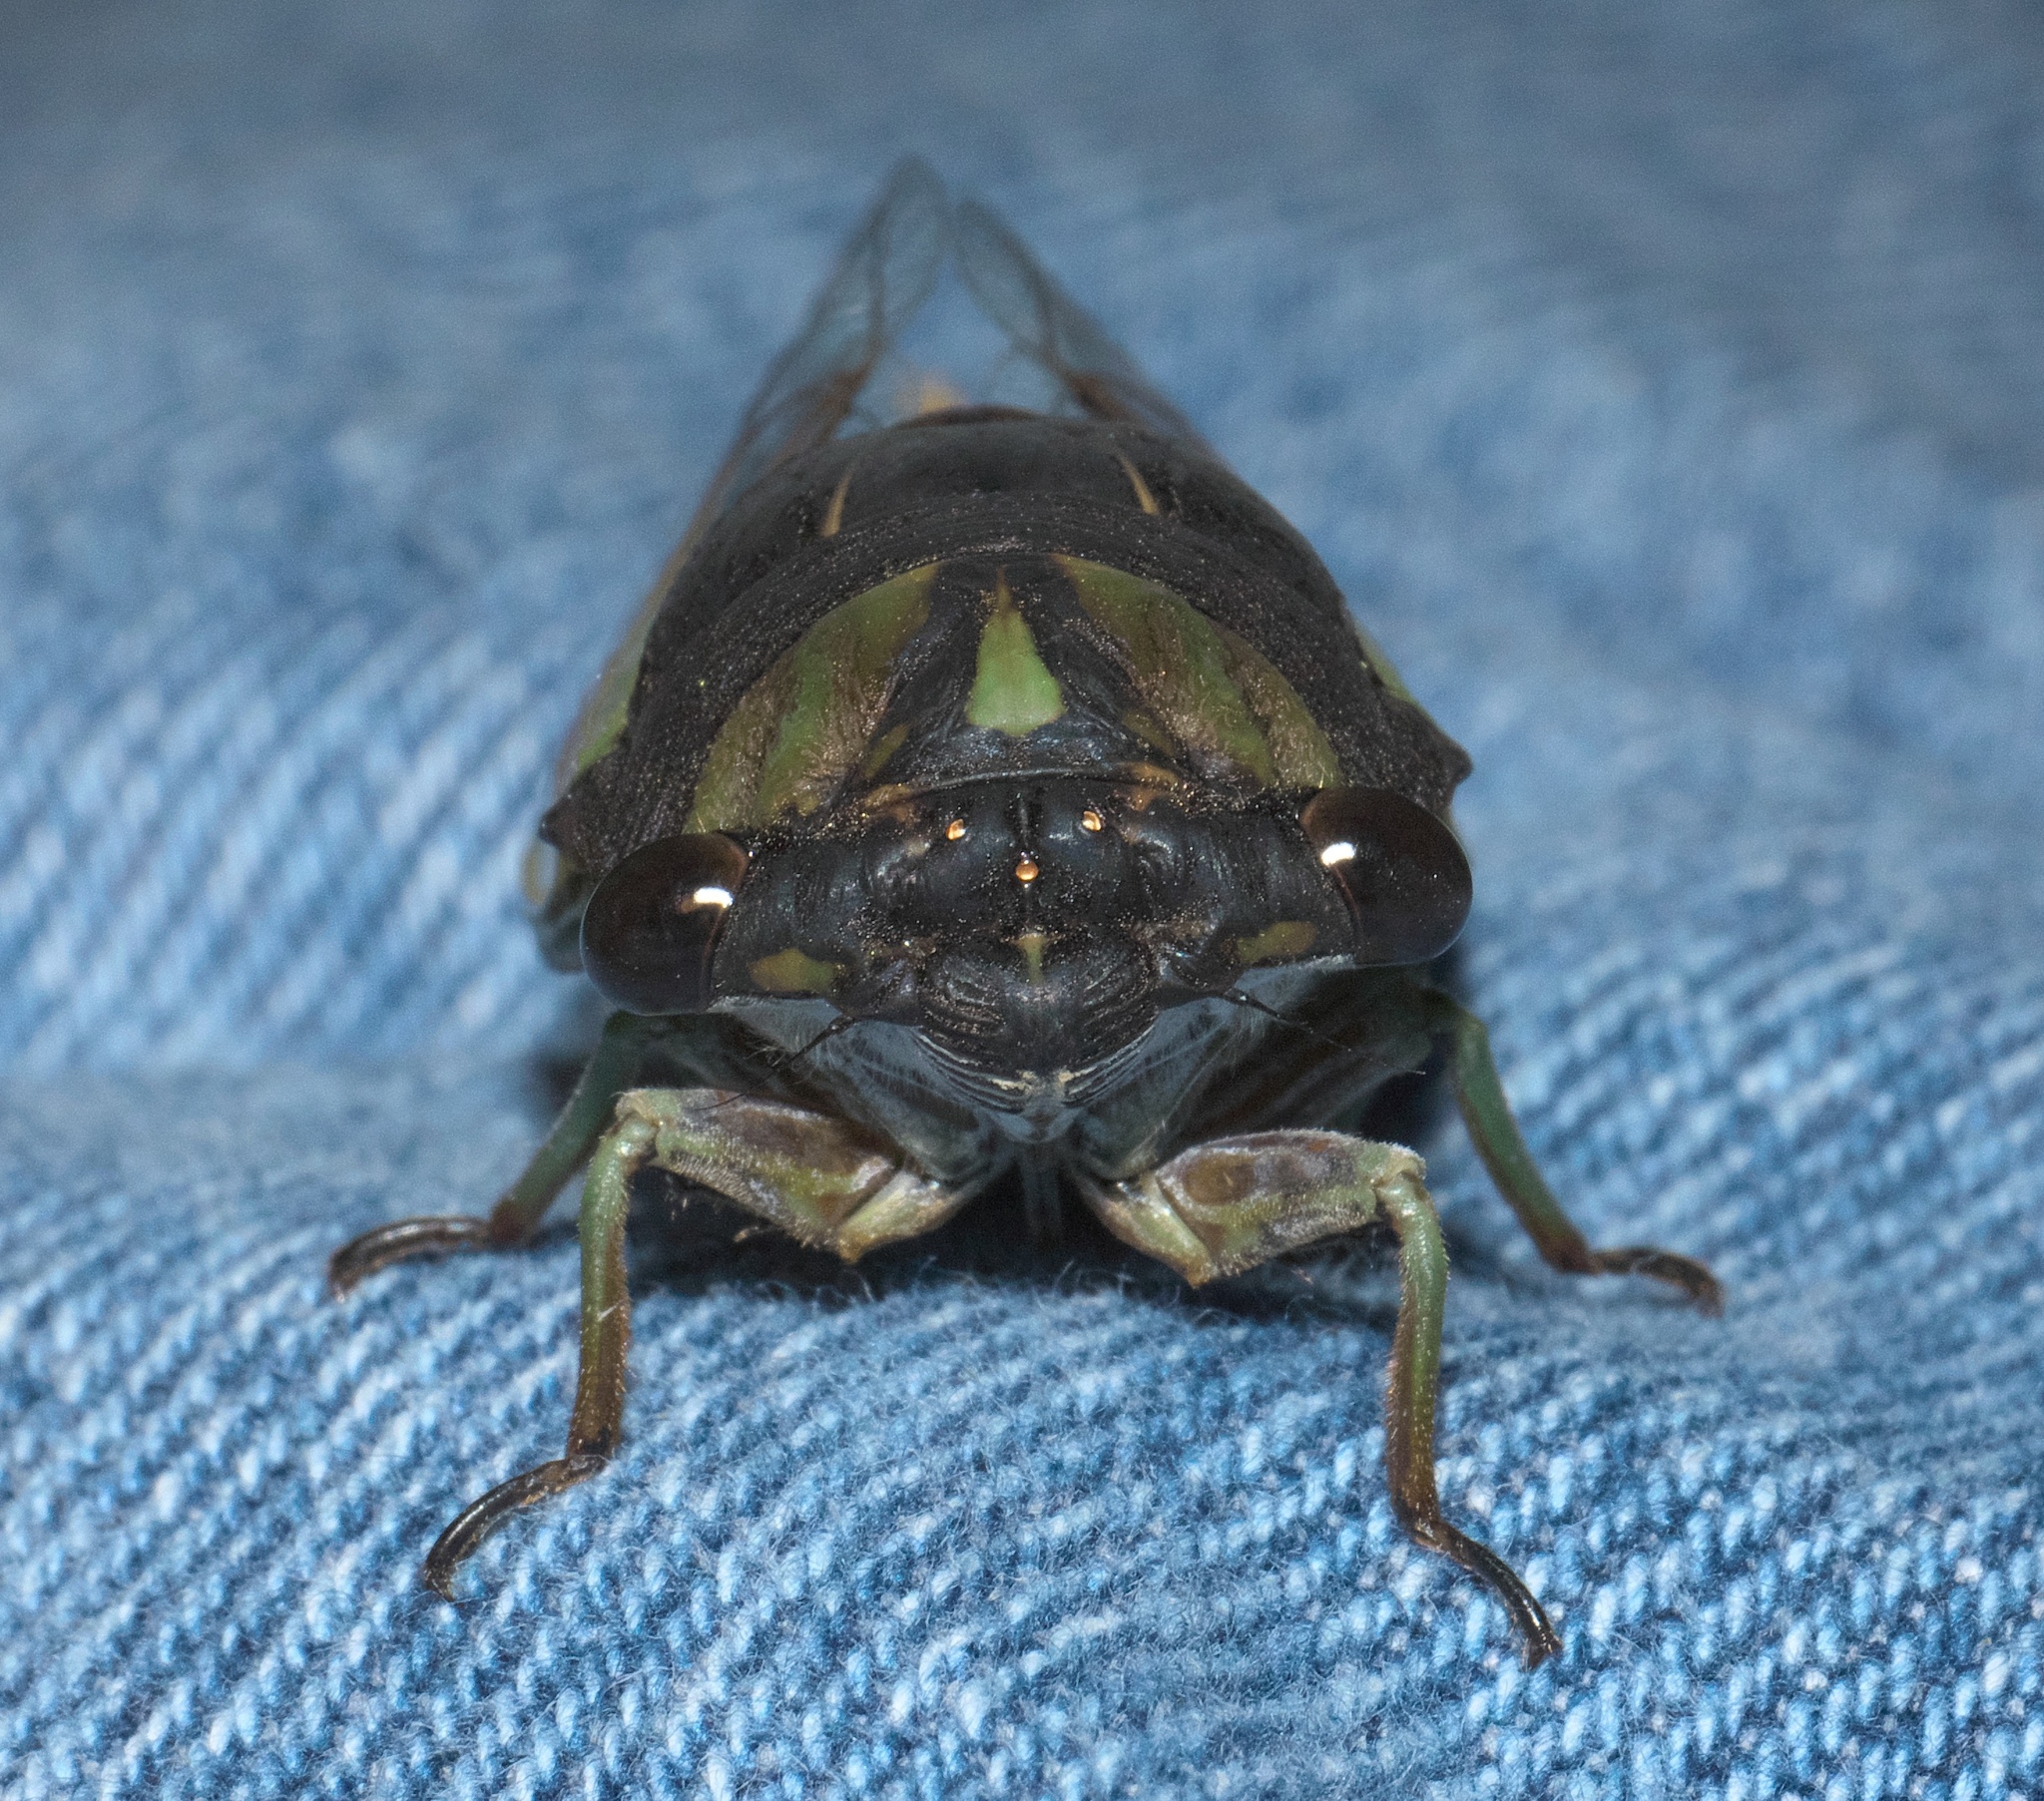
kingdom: Animalia
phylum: Arthropoda
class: Insecta
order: Hemiptera
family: Cicadidae
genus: Neotibicen
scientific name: Neotibicen tibicen
